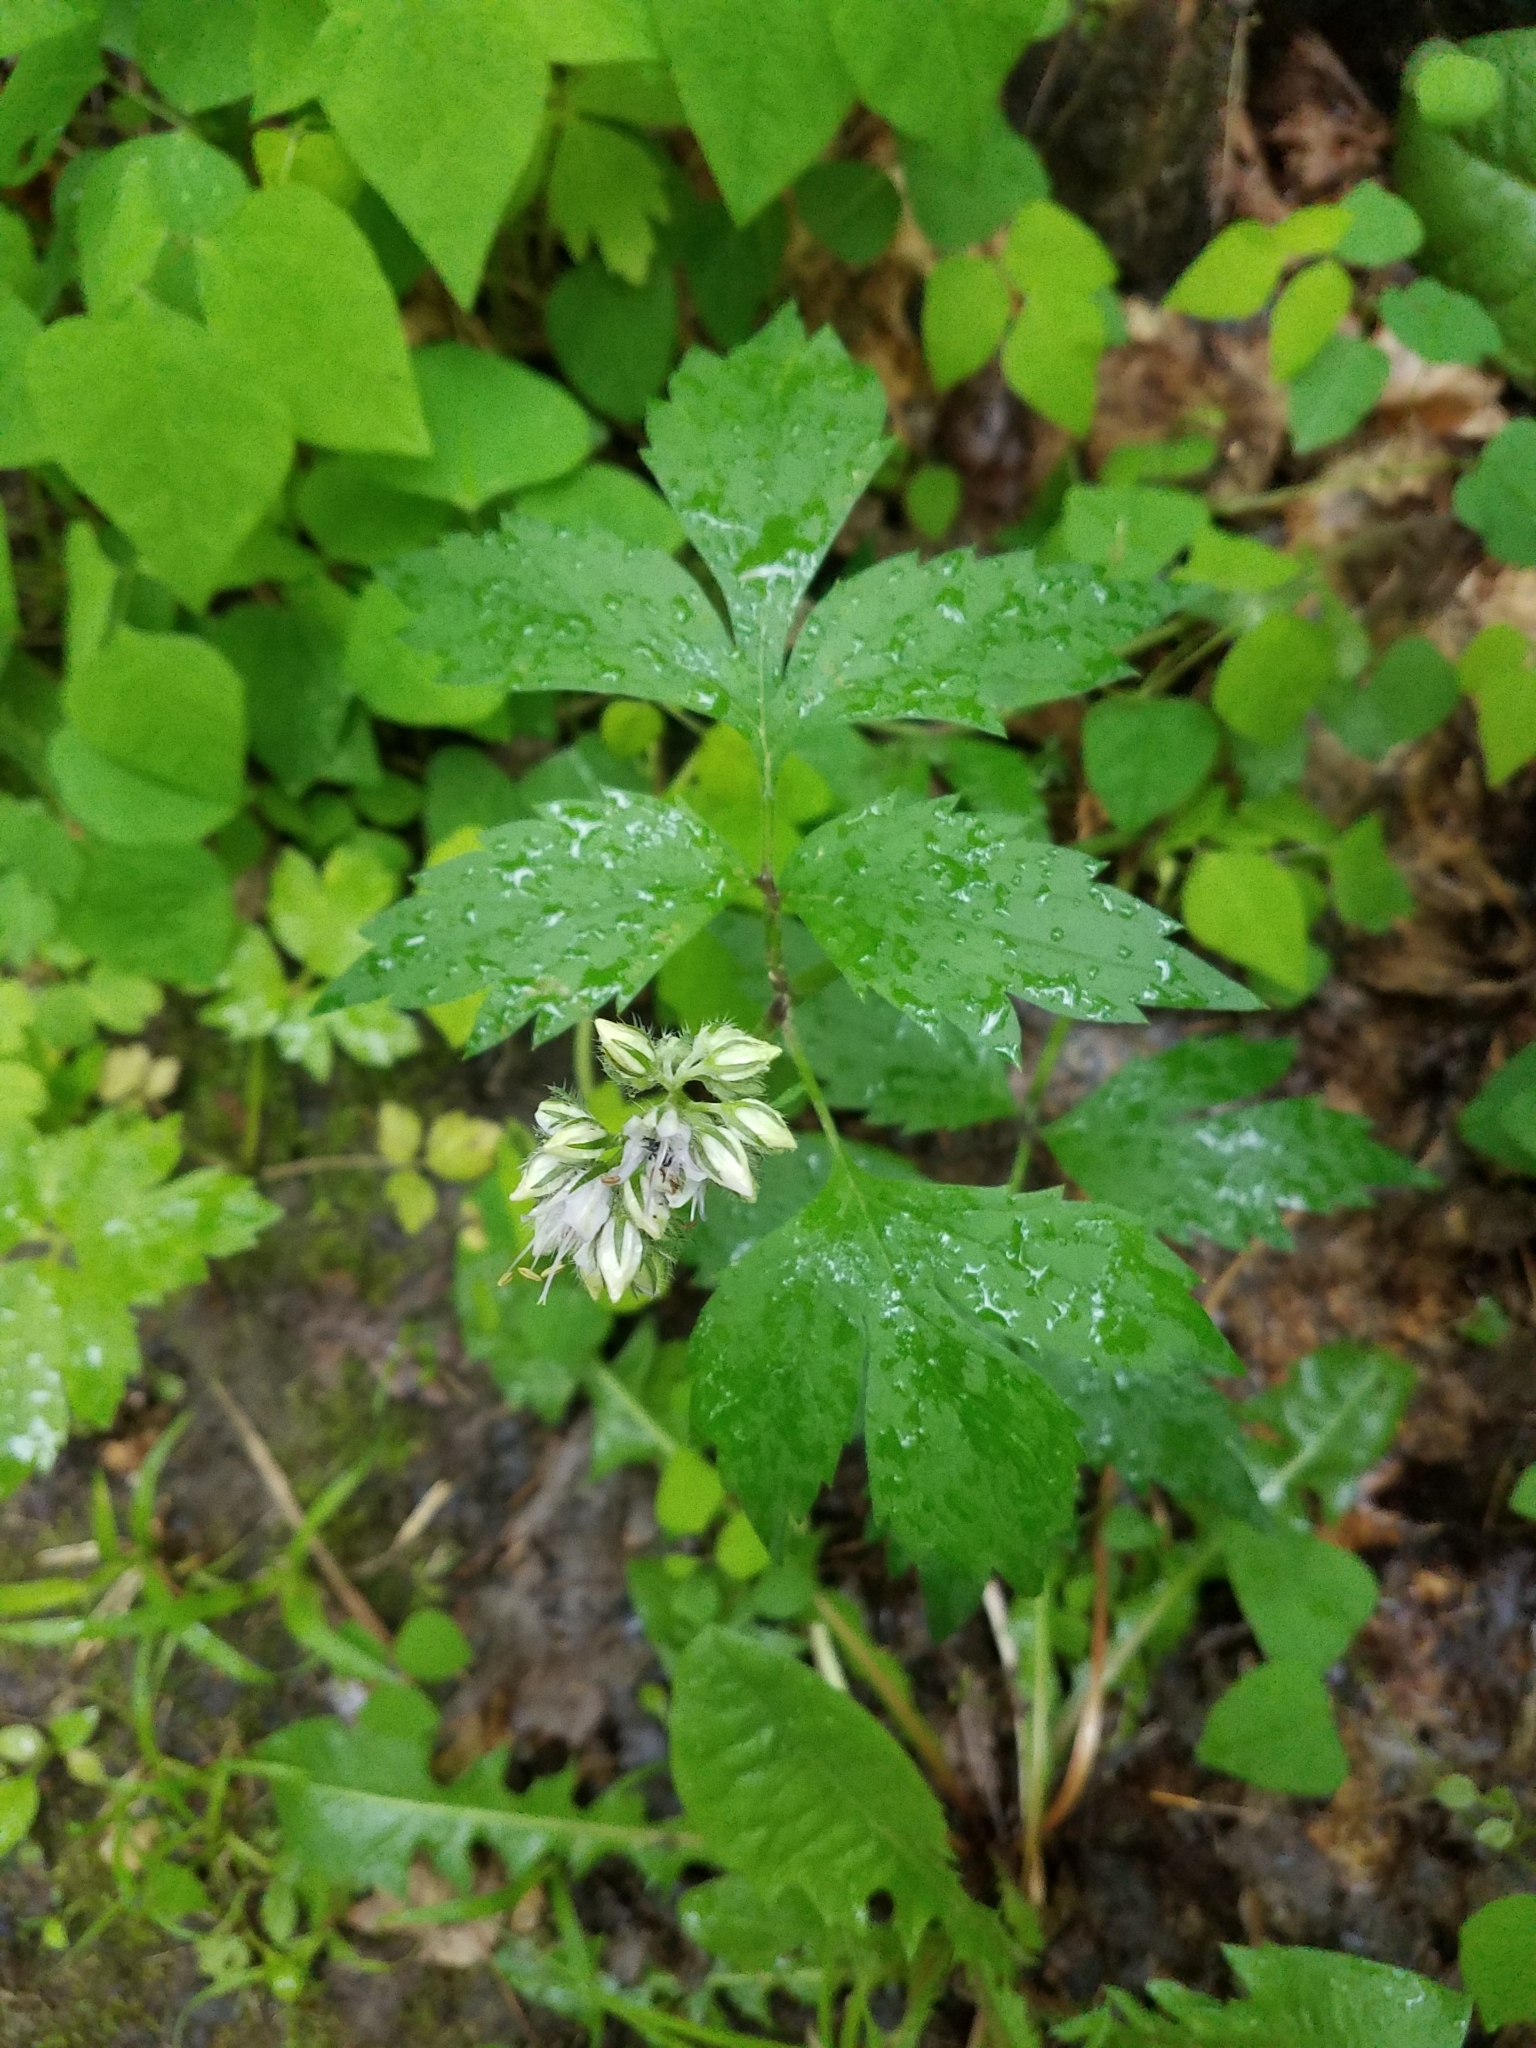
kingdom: Plantae
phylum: Tracheophyta
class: Magnoliopsida
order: Boraginales
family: Hydrophyllaceae
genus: Hydrophyllum
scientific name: Hydrophyllum virginianum
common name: Virginia waterleaf
